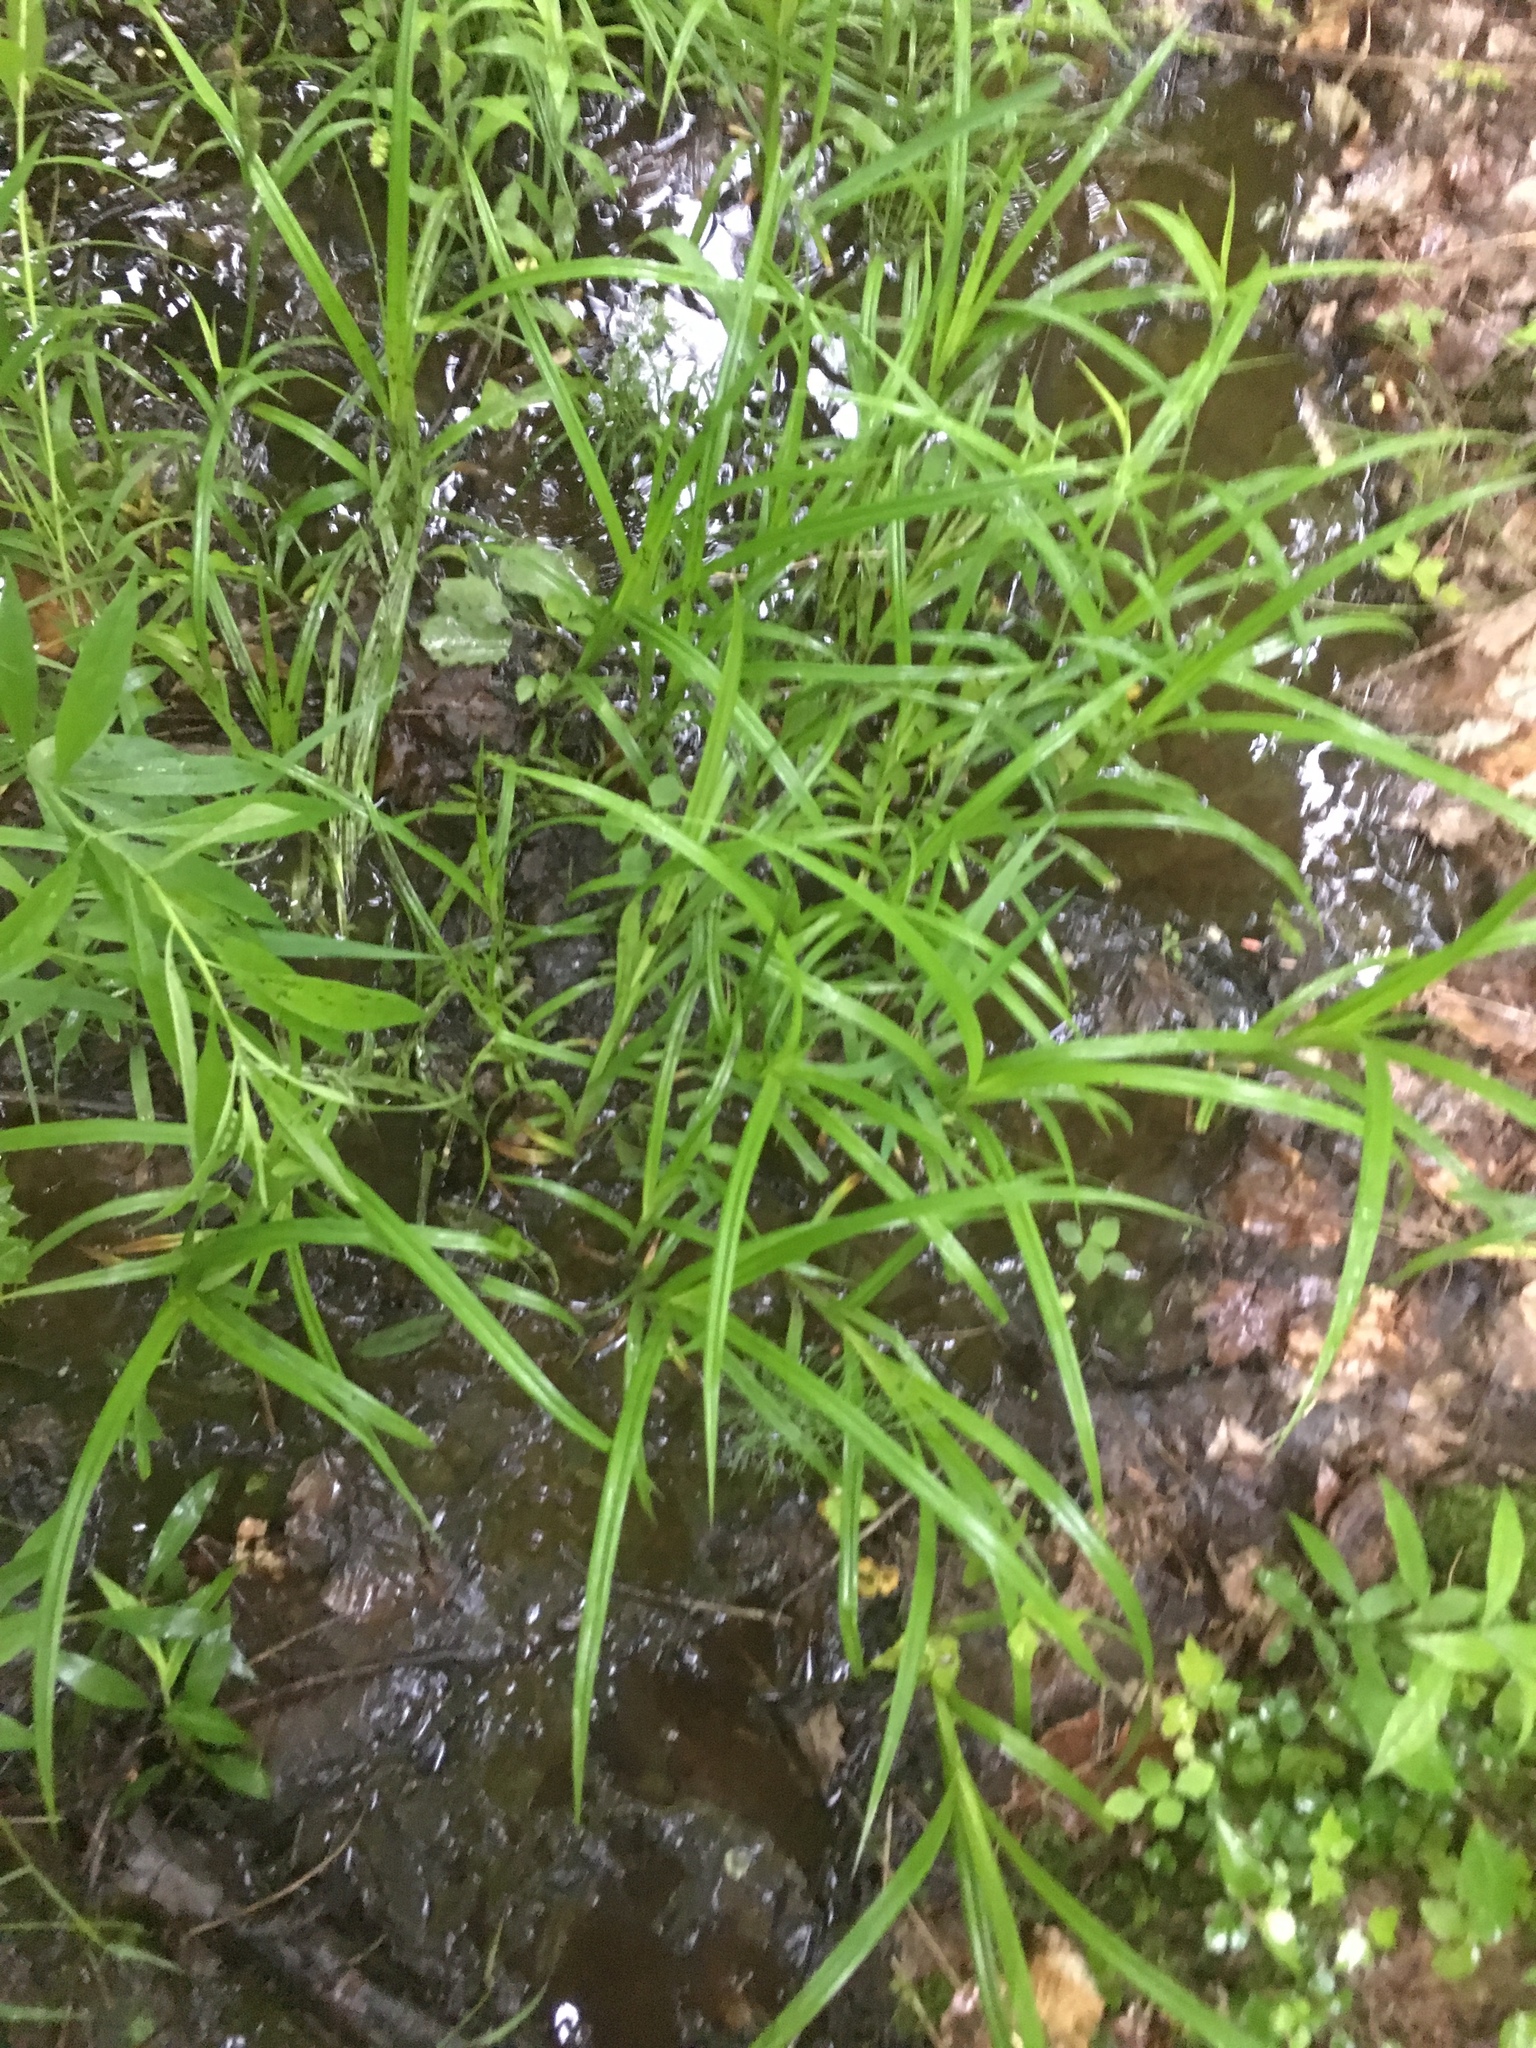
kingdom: Plantae
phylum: Tracheophyta
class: Liliopsida
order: Poales
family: Cyperaceae
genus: Carex
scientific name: Carex scabrata
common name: Eastern rough sedge
